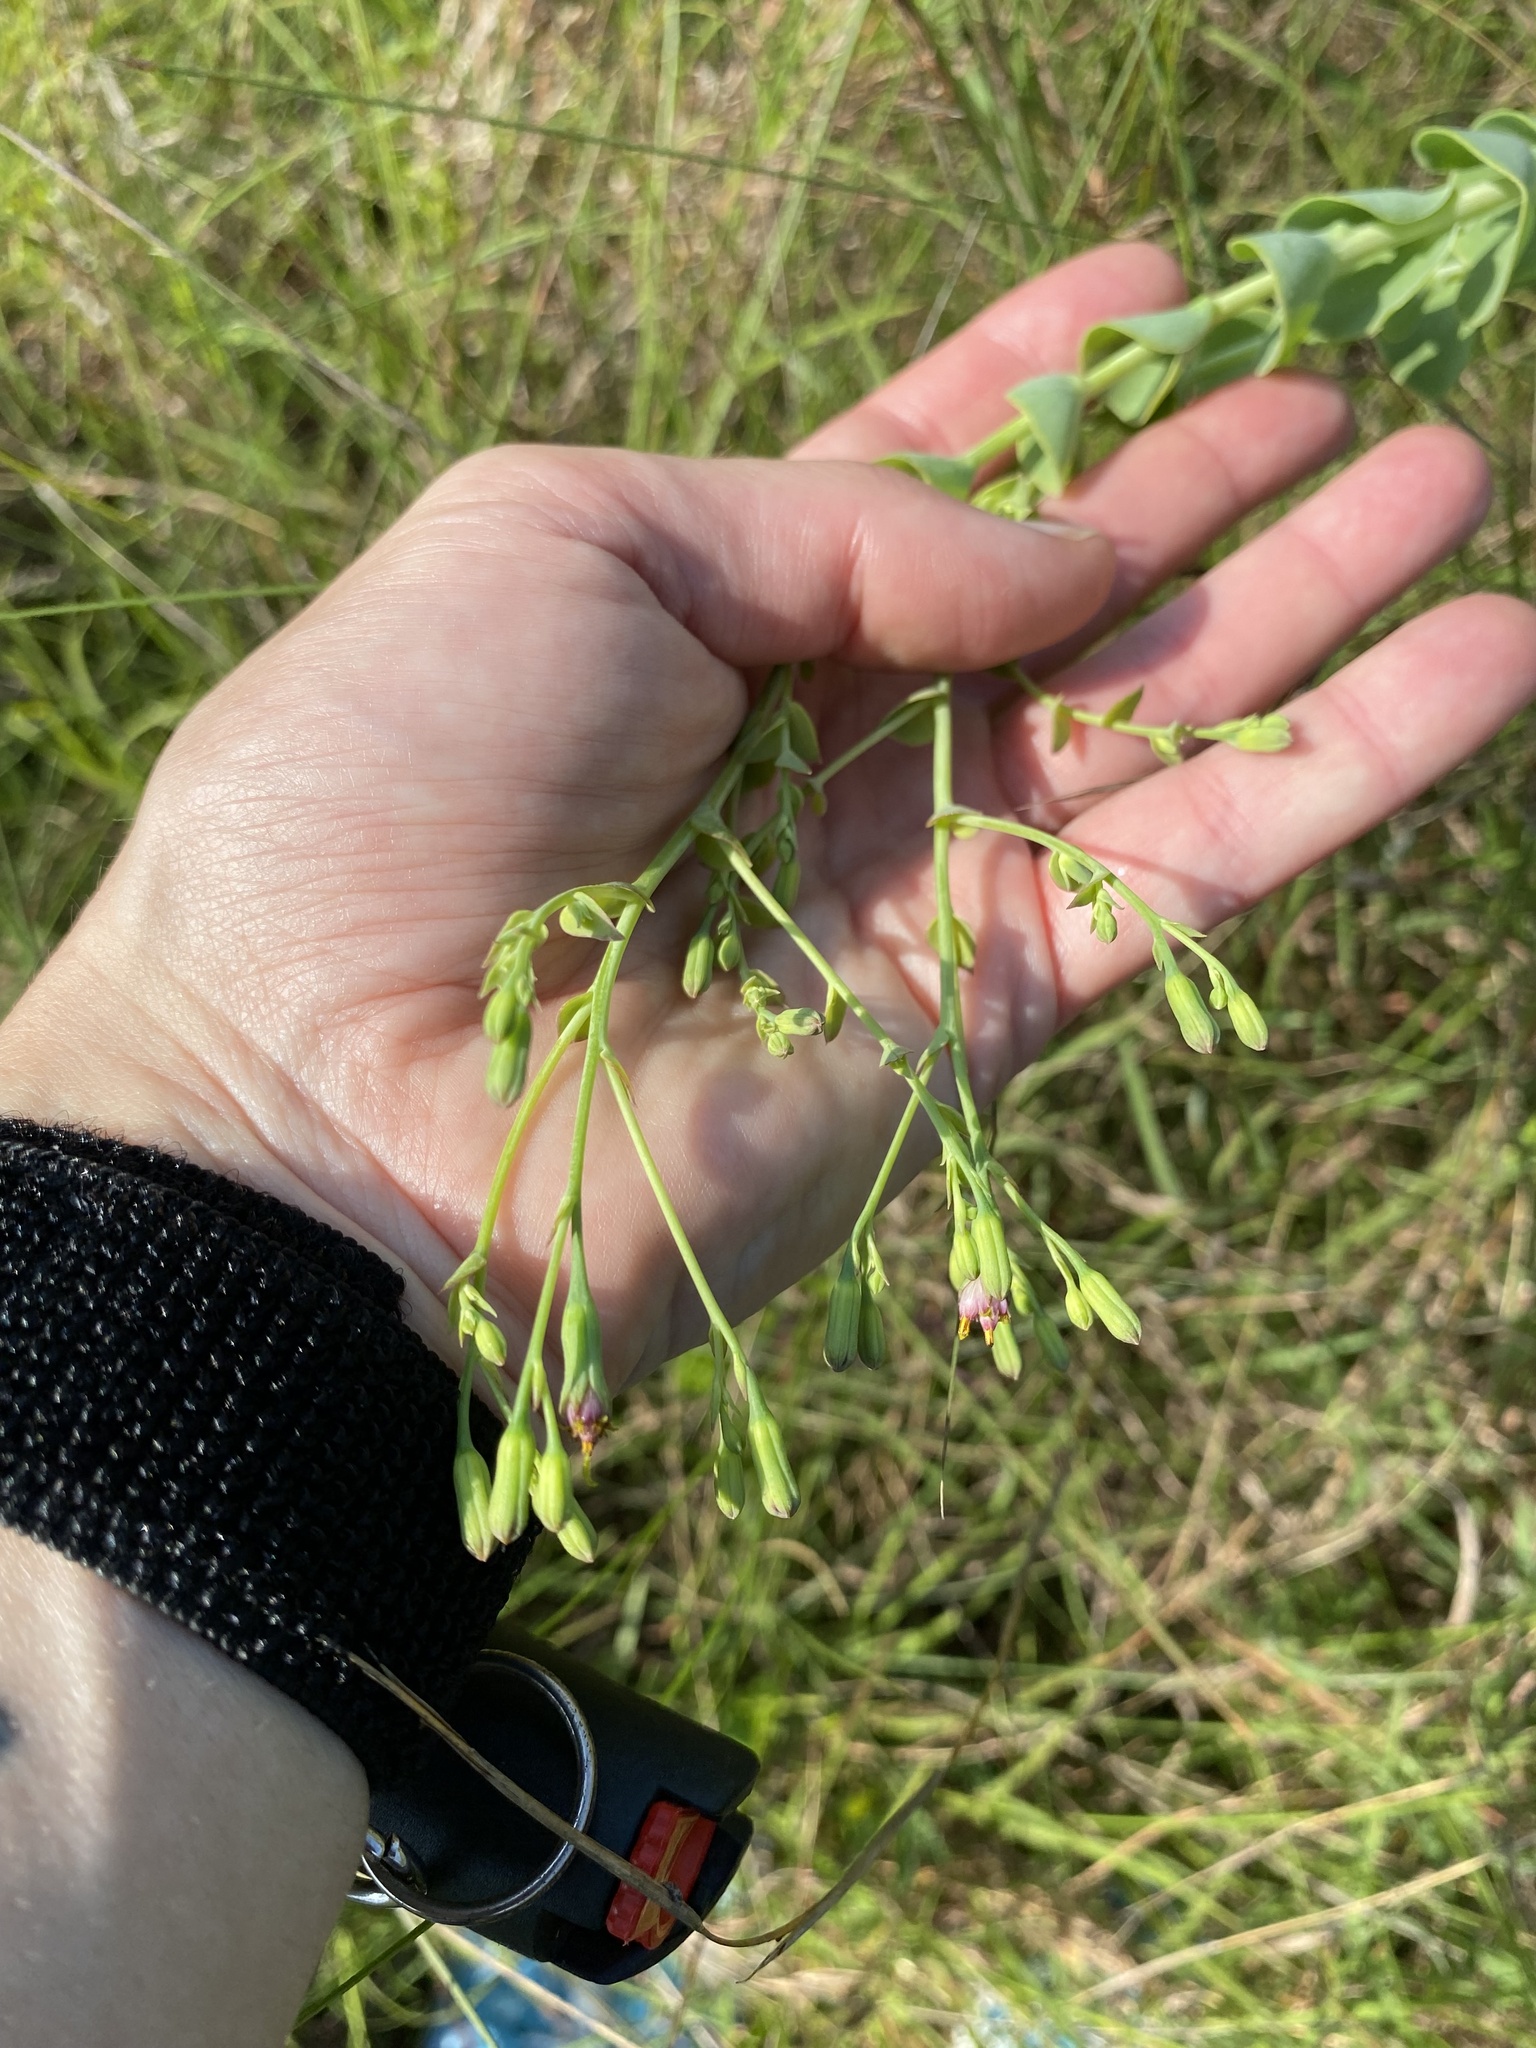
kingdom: Plantae
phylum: Tracheophyta
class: Magnoliopsida
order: Asterales
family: Asteraceae
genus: Lopholaena
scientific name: Lopholaena segmentata
